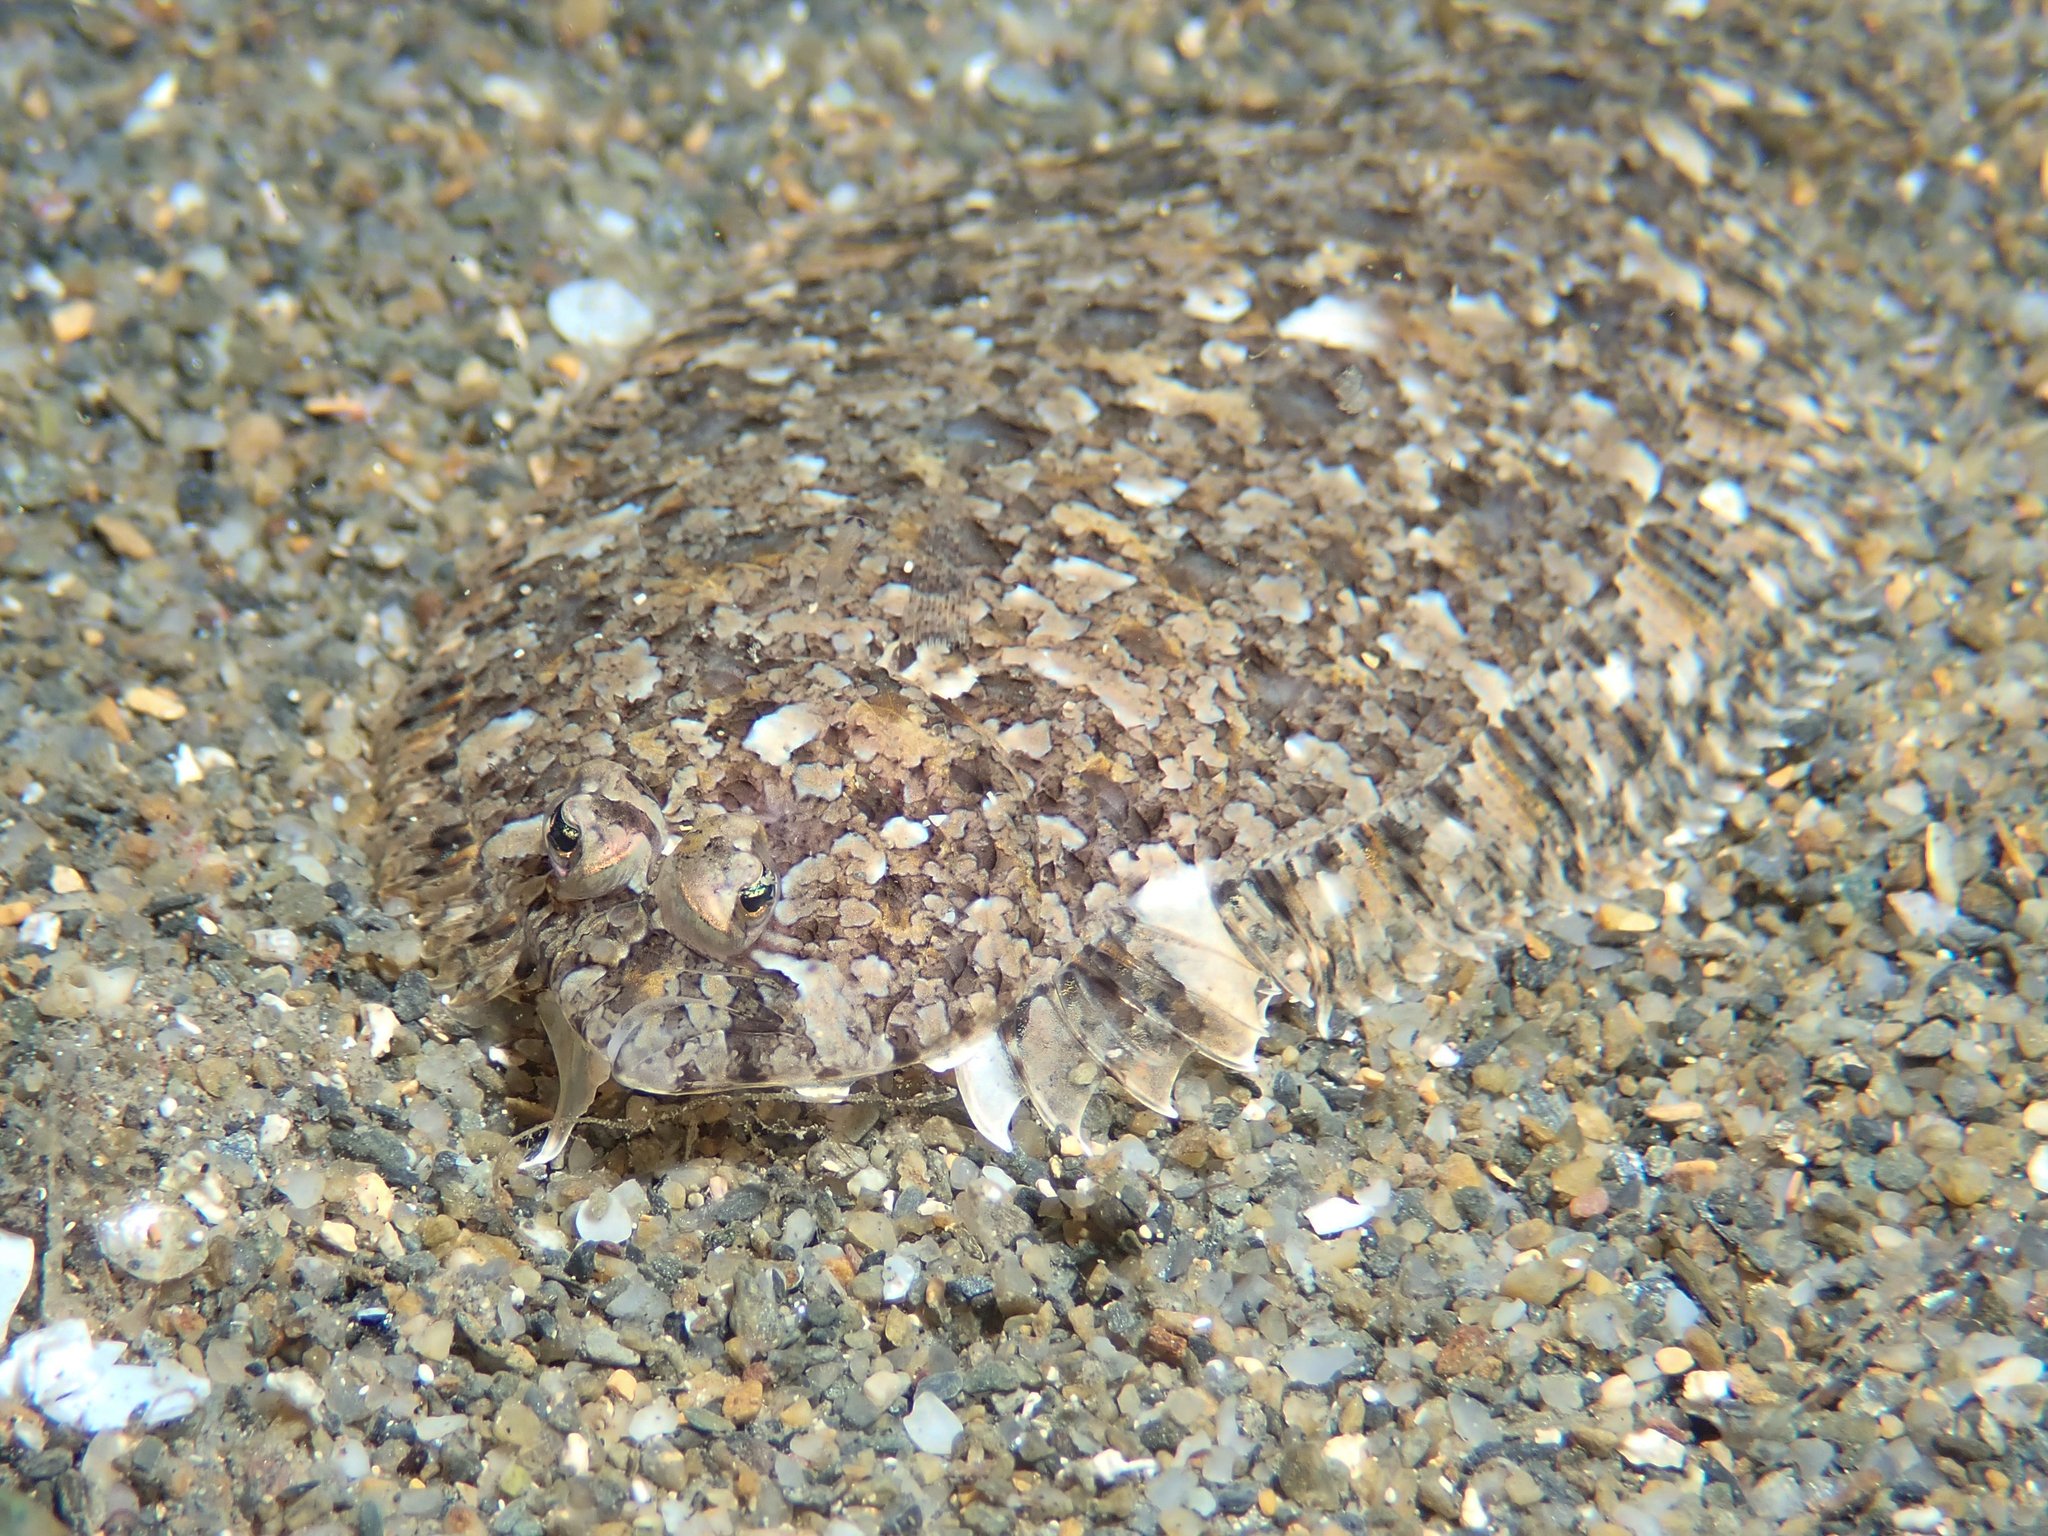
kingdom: Animalia
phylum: Chordata
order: Pleuronectiformes
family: Bothidae
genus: Arnoglossus
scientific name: Arnoglossus thori
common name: Thor's scaldfish
